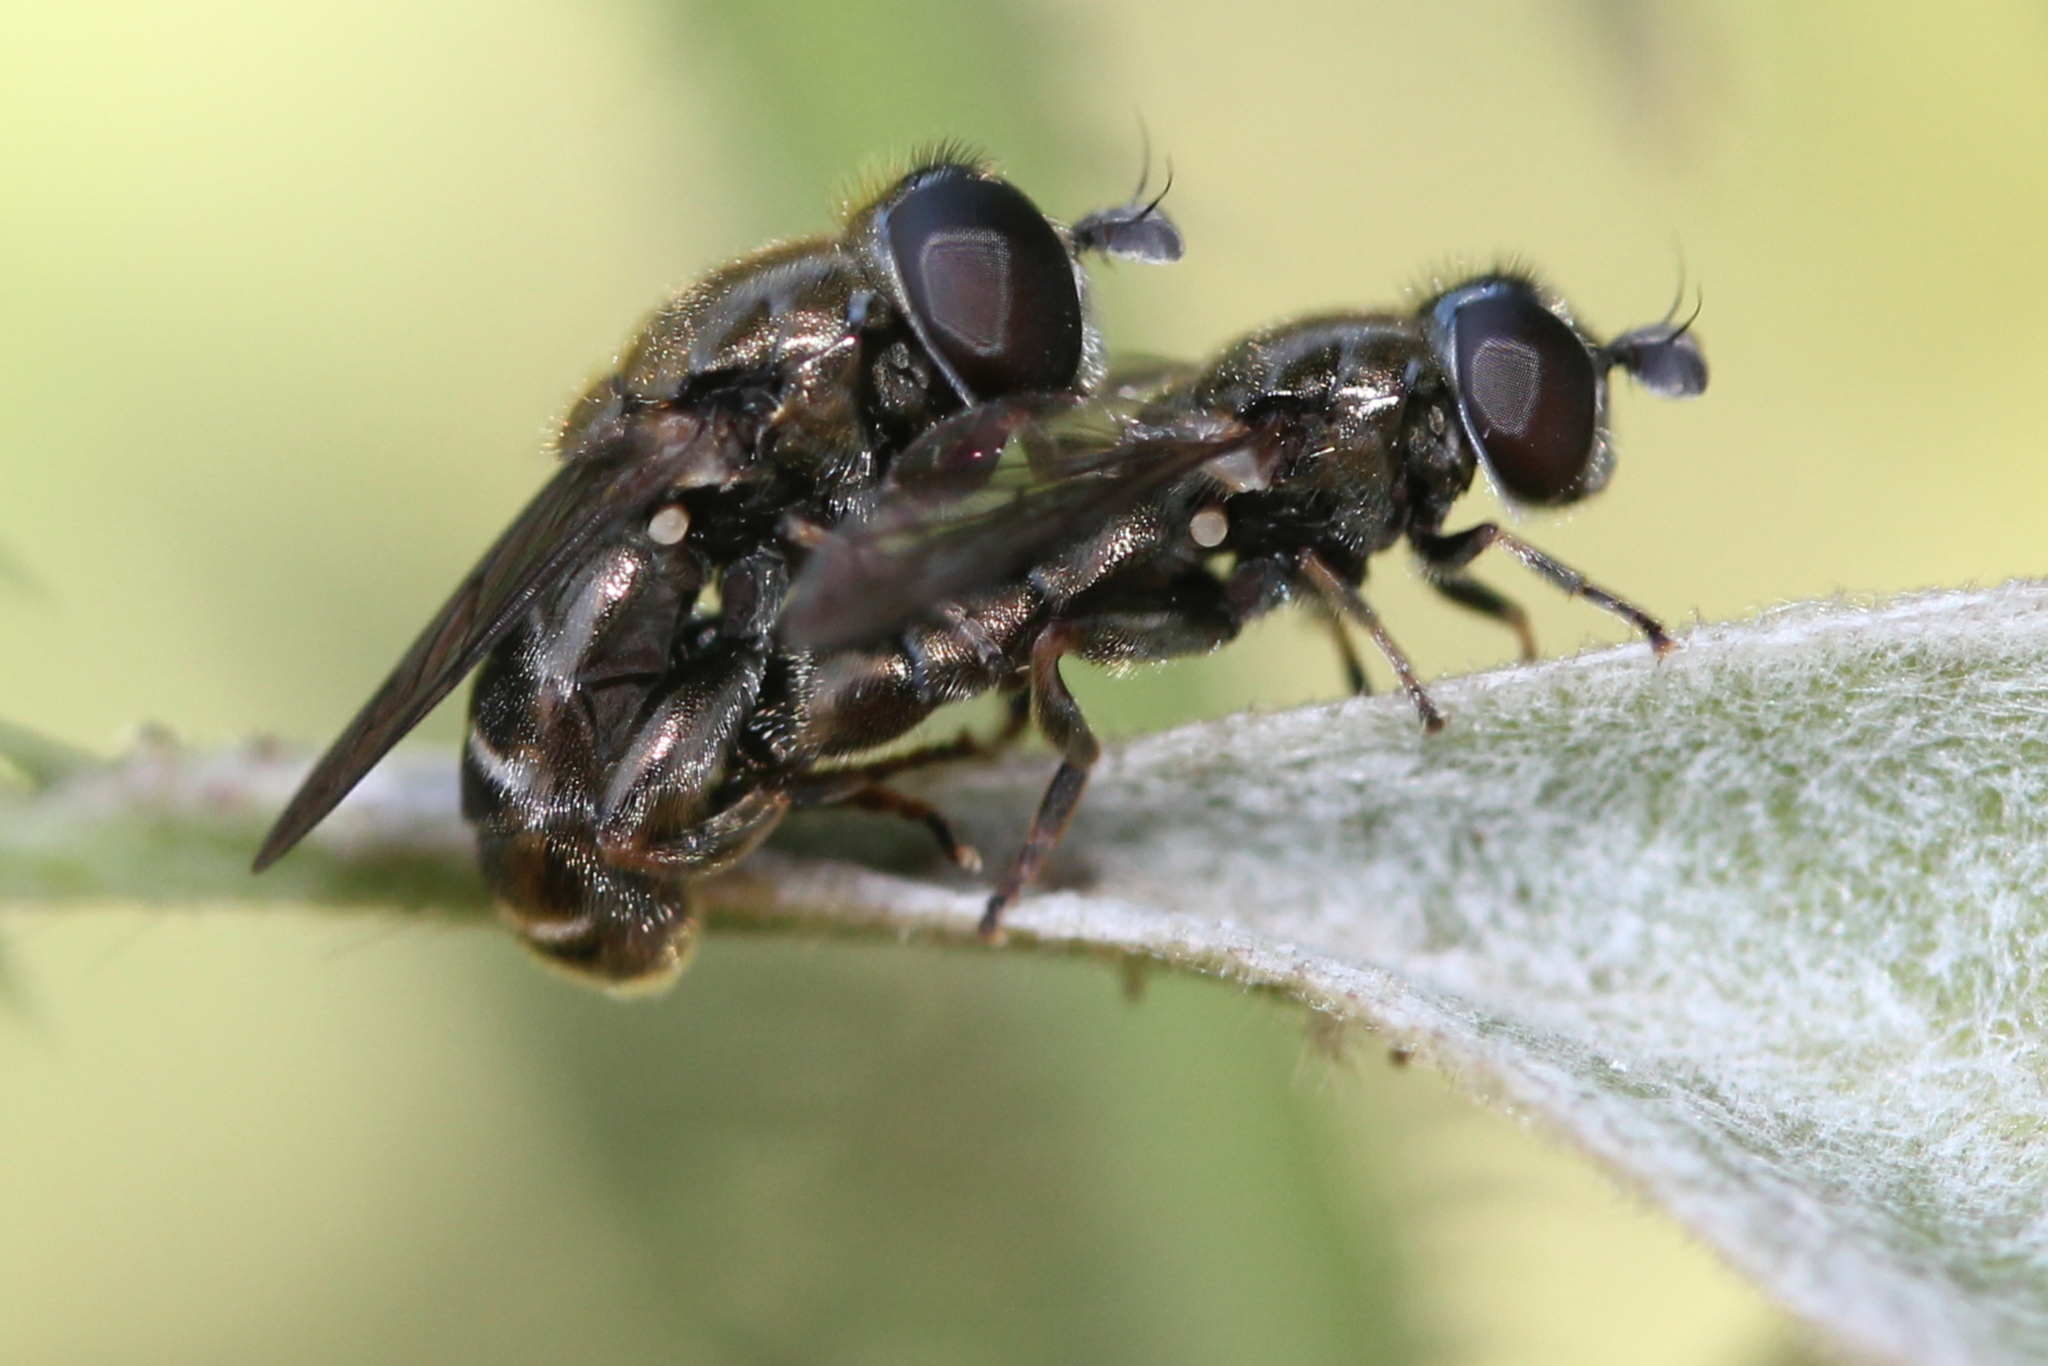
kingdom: Animalia
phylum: Arthropoda
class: Insecta
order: Diptera
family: Syrphidae
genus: Eumerus
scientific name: Eumerus
